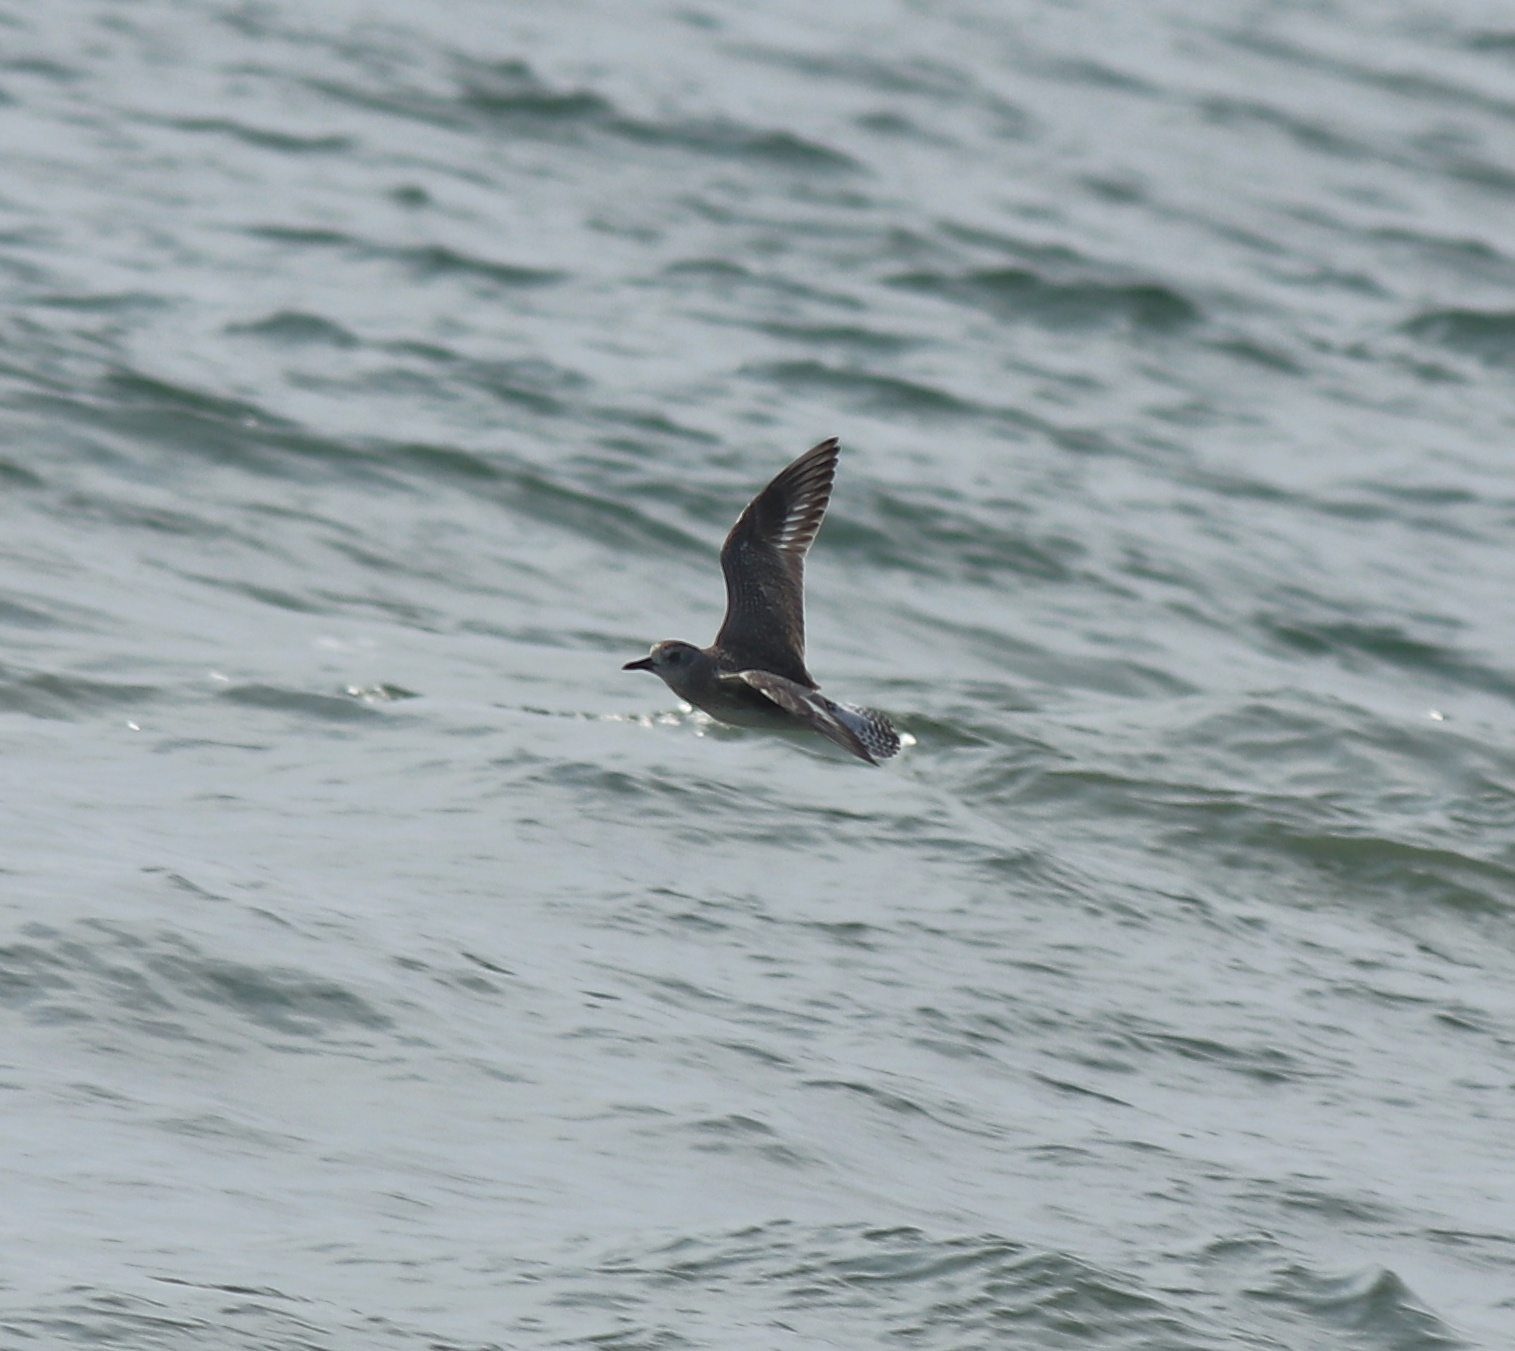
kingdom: Animalia
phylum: Chordata
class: Aves
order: Charadriiformes
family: Charadriidae
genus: Pluvialis
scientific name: Pluvialis squatarola
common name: Grey plover
